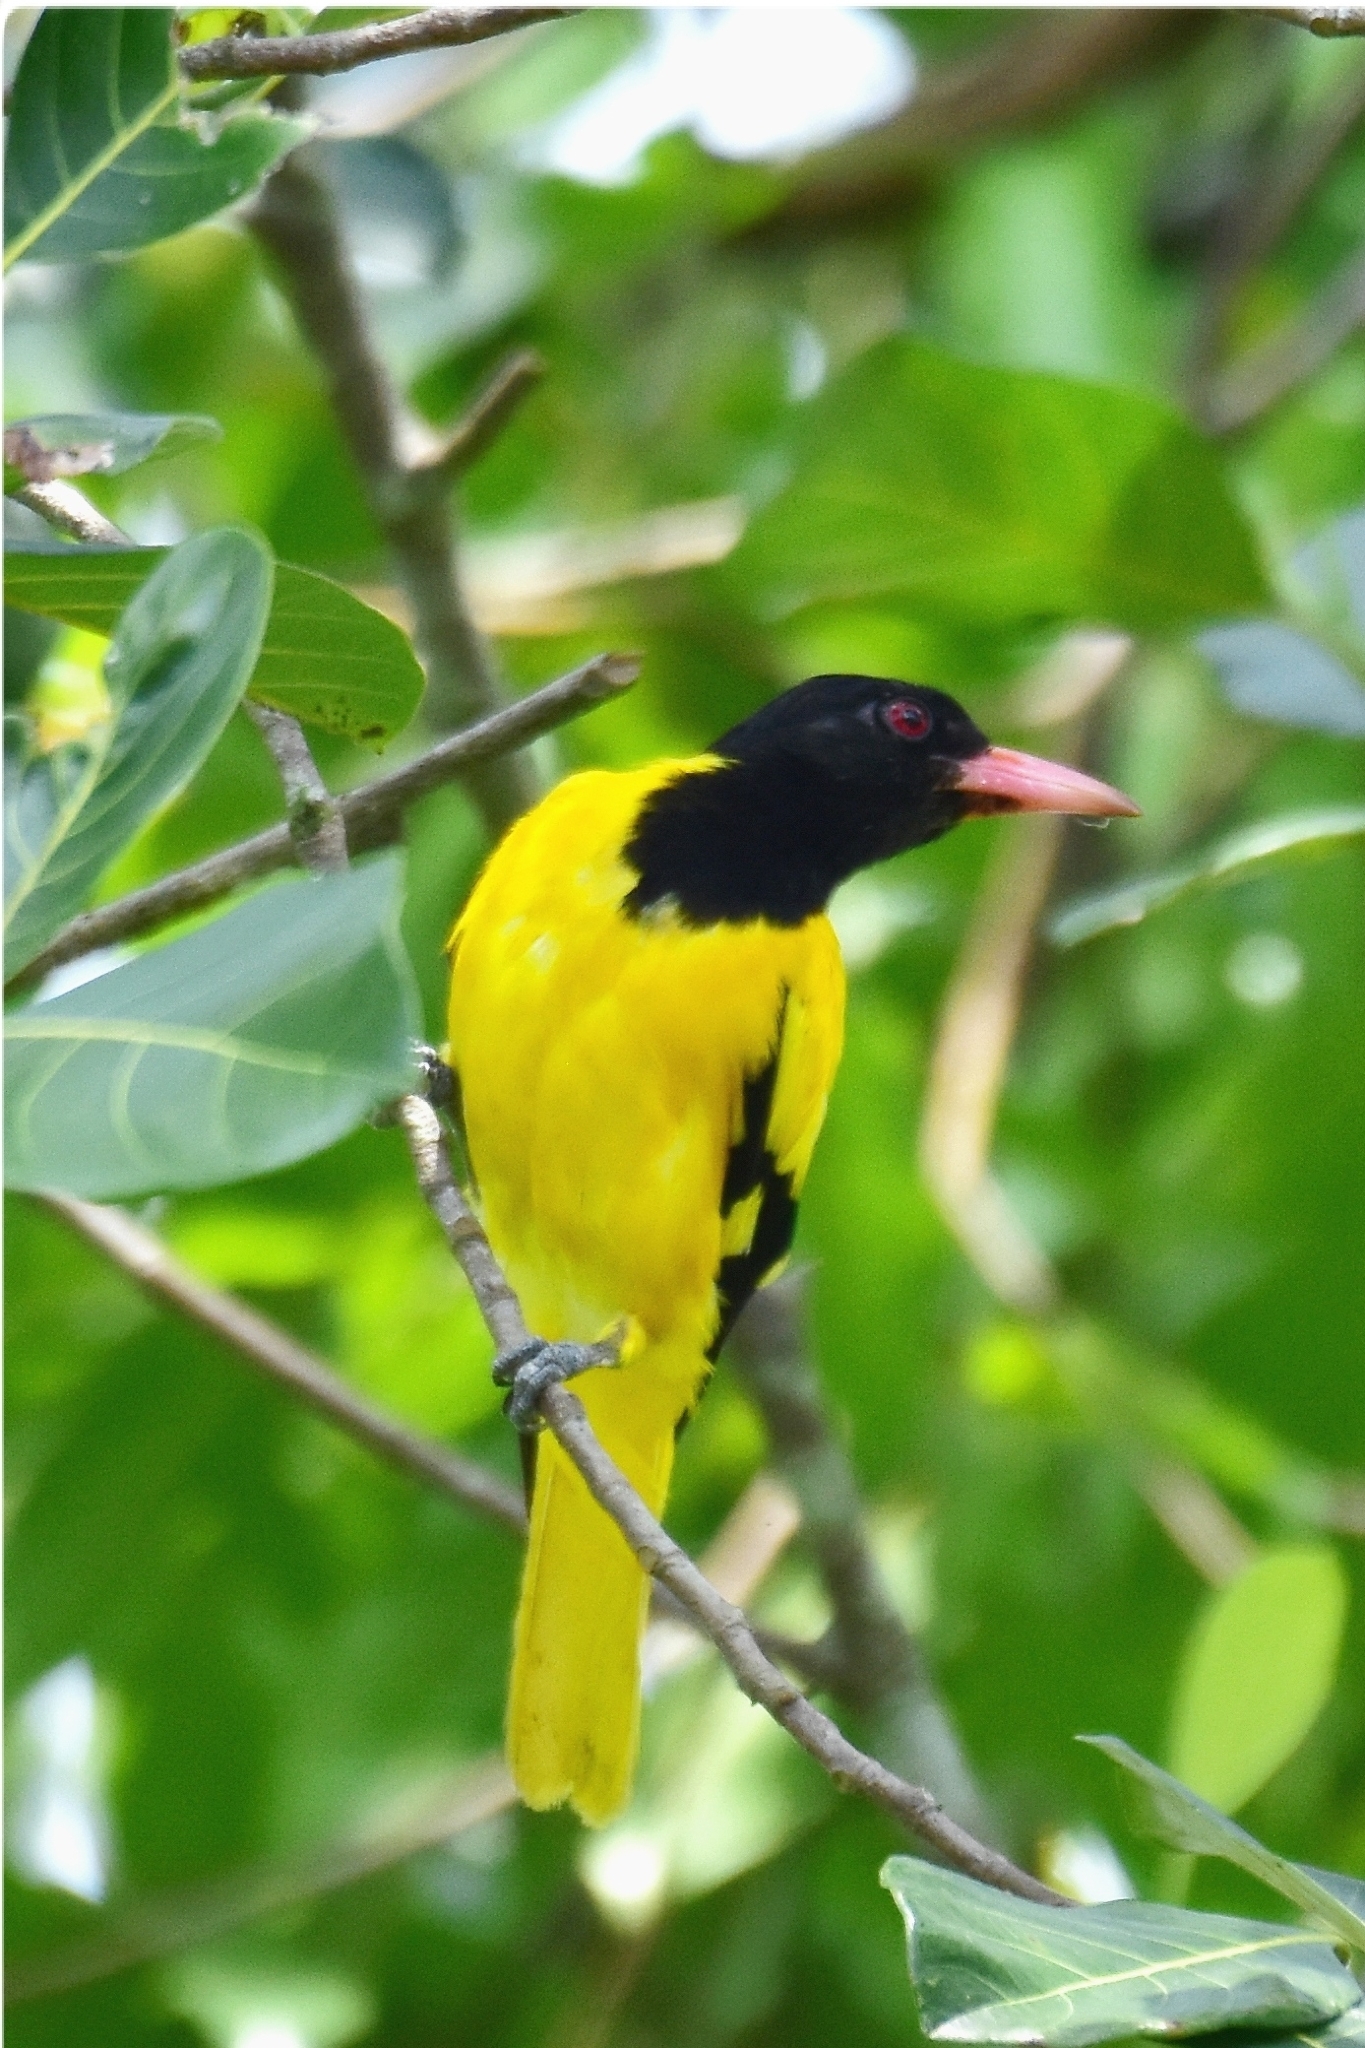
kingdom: Animalia
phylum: Chordata
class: Aves
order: Passeriformes
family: Oriolidae
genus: Oriolus
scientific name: Oriolus xanthornus
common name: Black-hooded oriole
